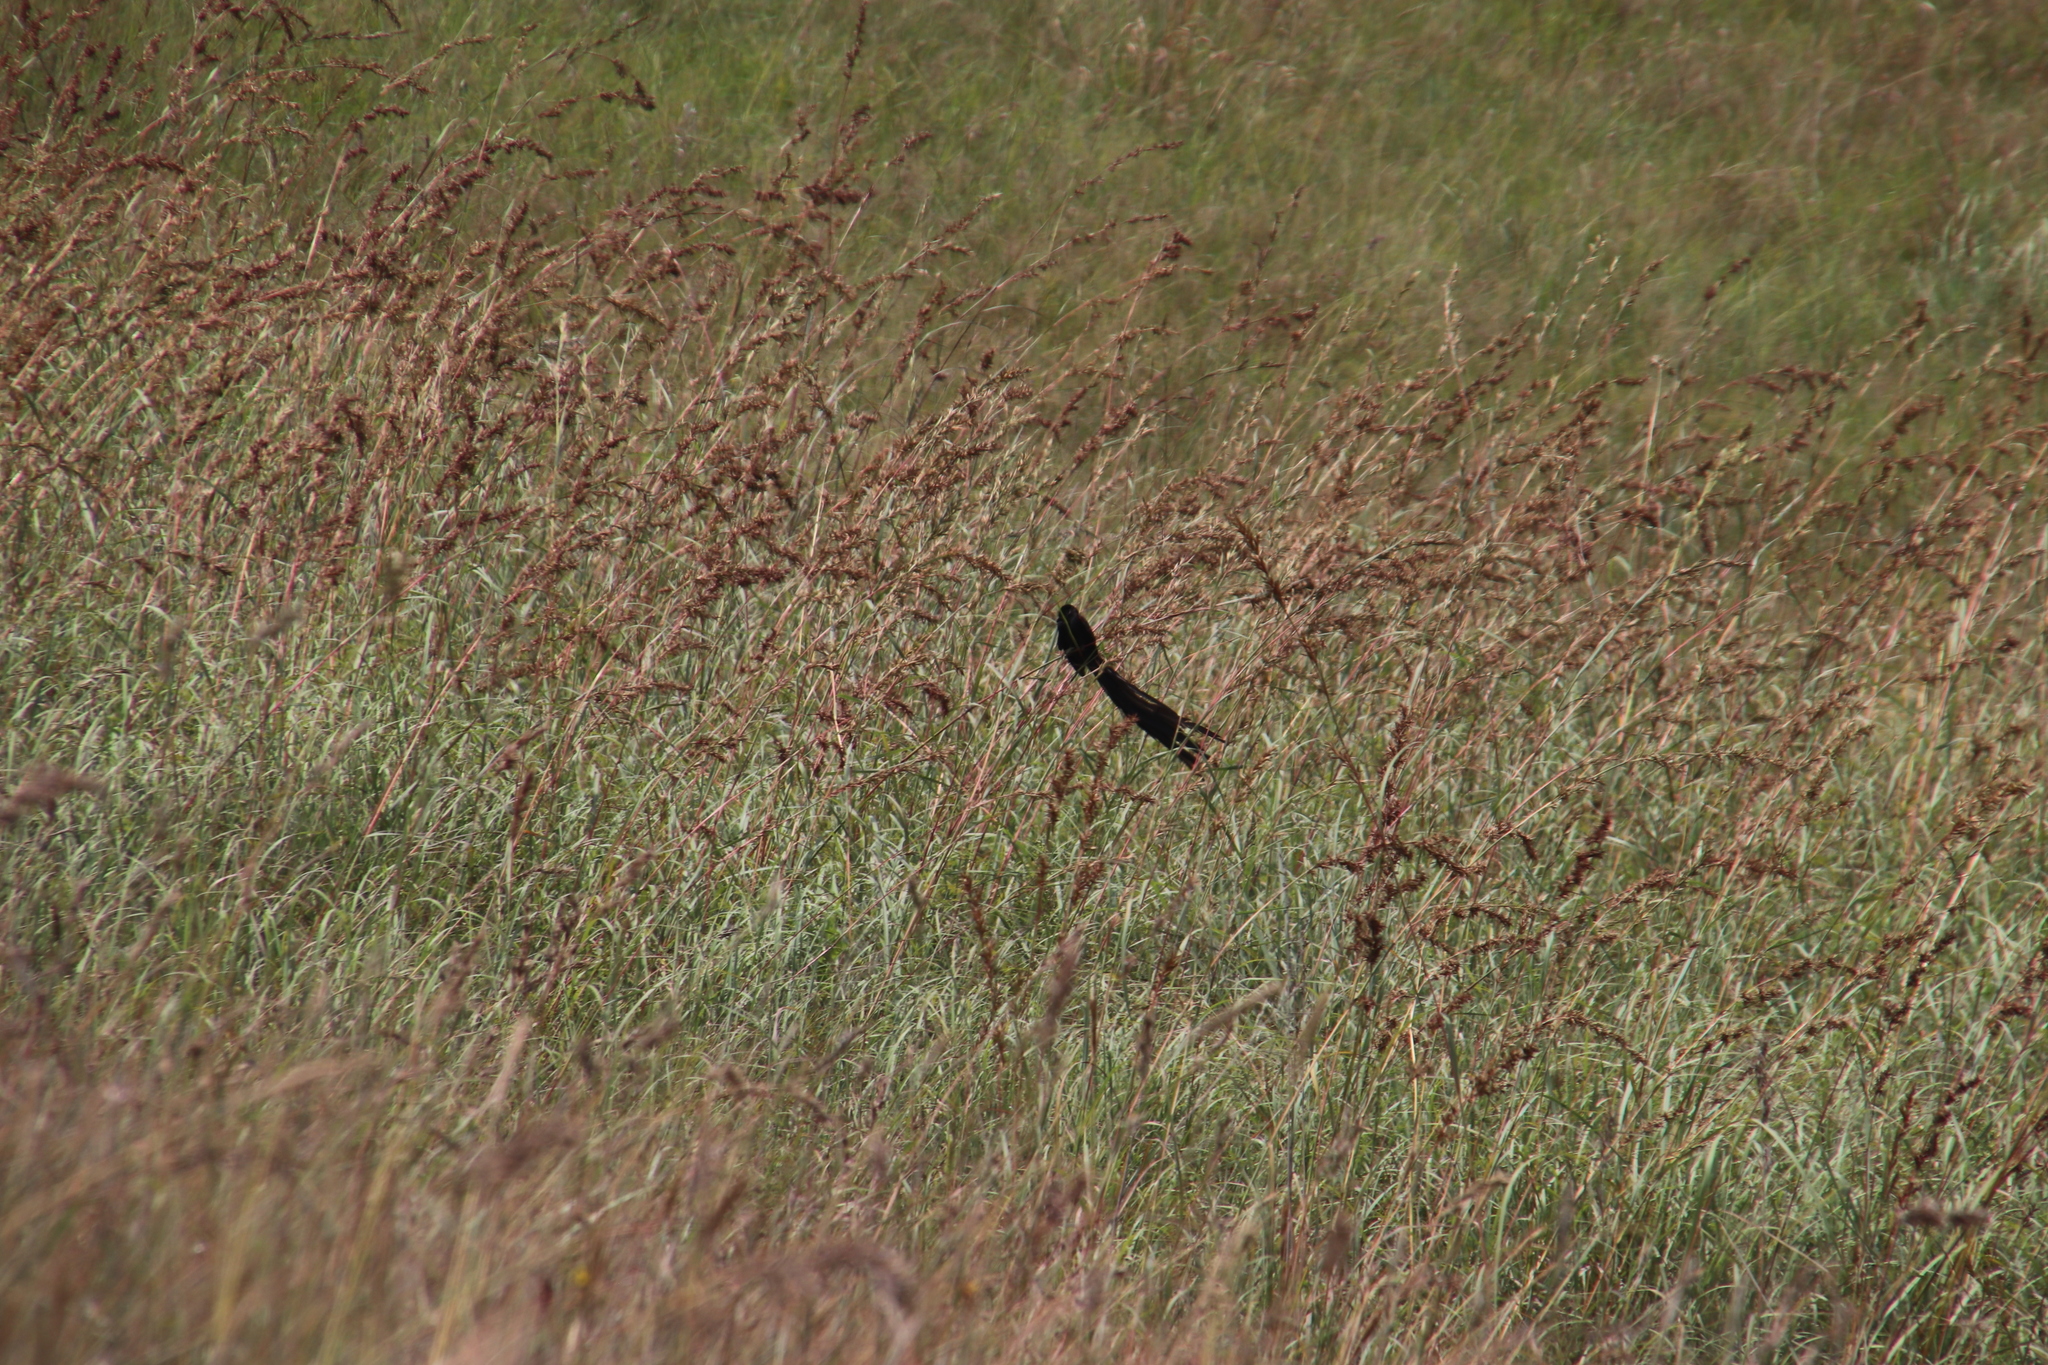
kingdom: Animalia
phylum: Chordata
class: Aves
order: Passeriformes
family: Ploceidae
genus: Euplectes
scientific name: Euplectes progne
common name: Long-tailed widowbird
